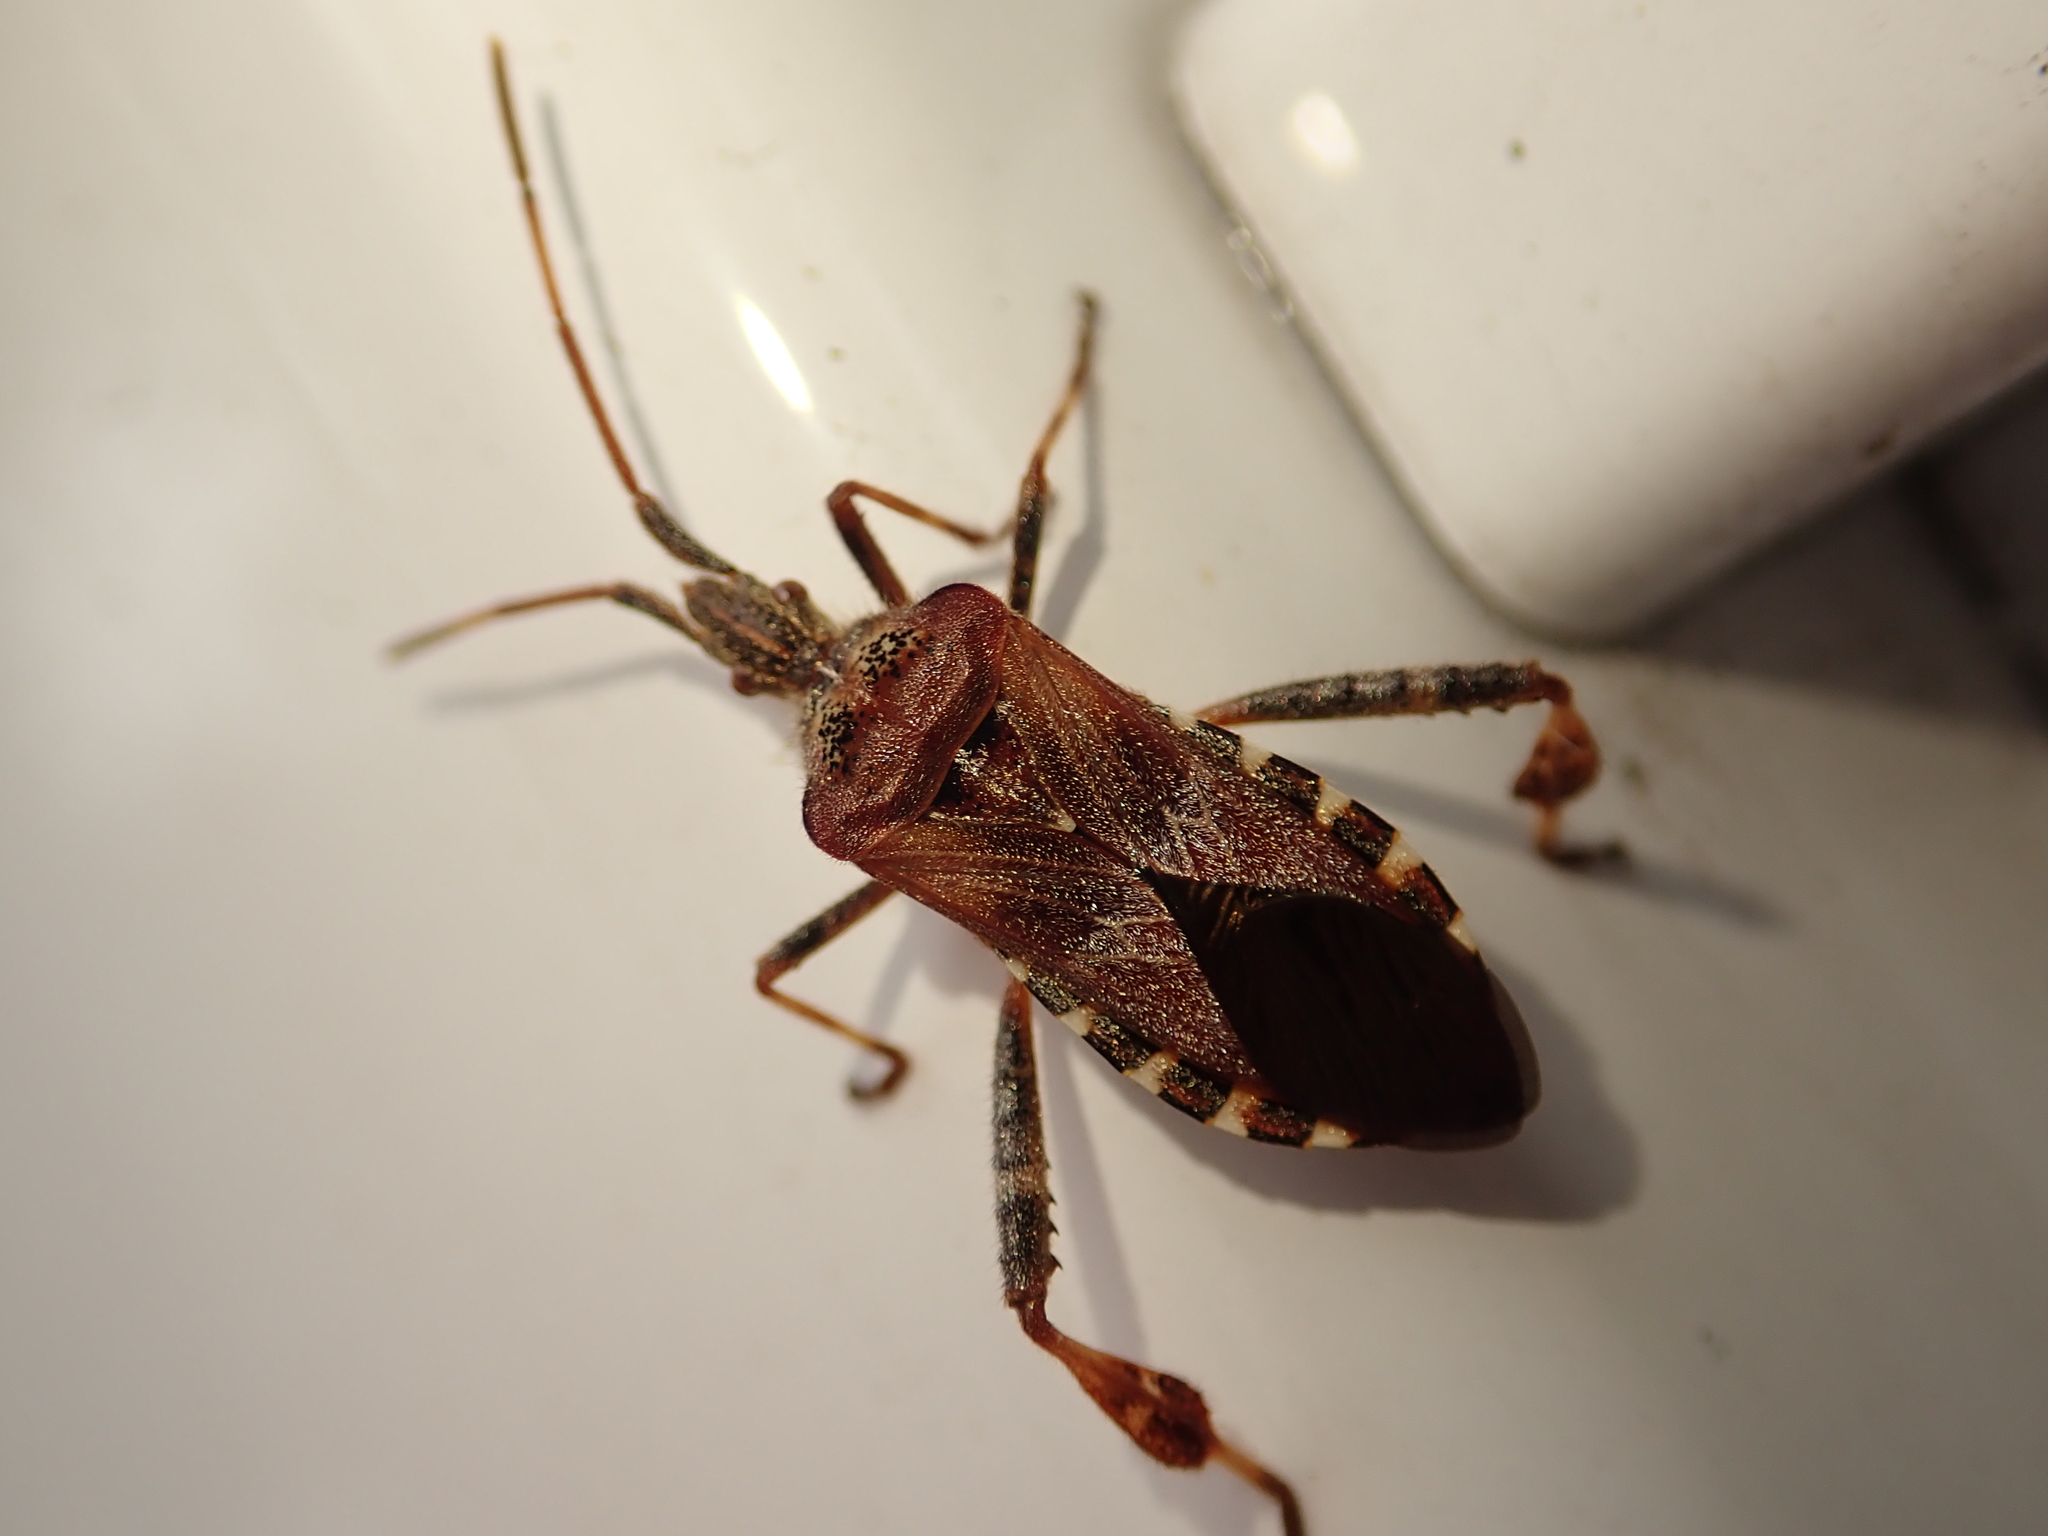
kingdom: Animalia
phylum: Arthropoda
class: Insecta
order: Hemiptera
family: Coreidae
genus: Leptoglossus
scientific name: Leptoglossus occidentalis
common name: Western conifer-seed bug
